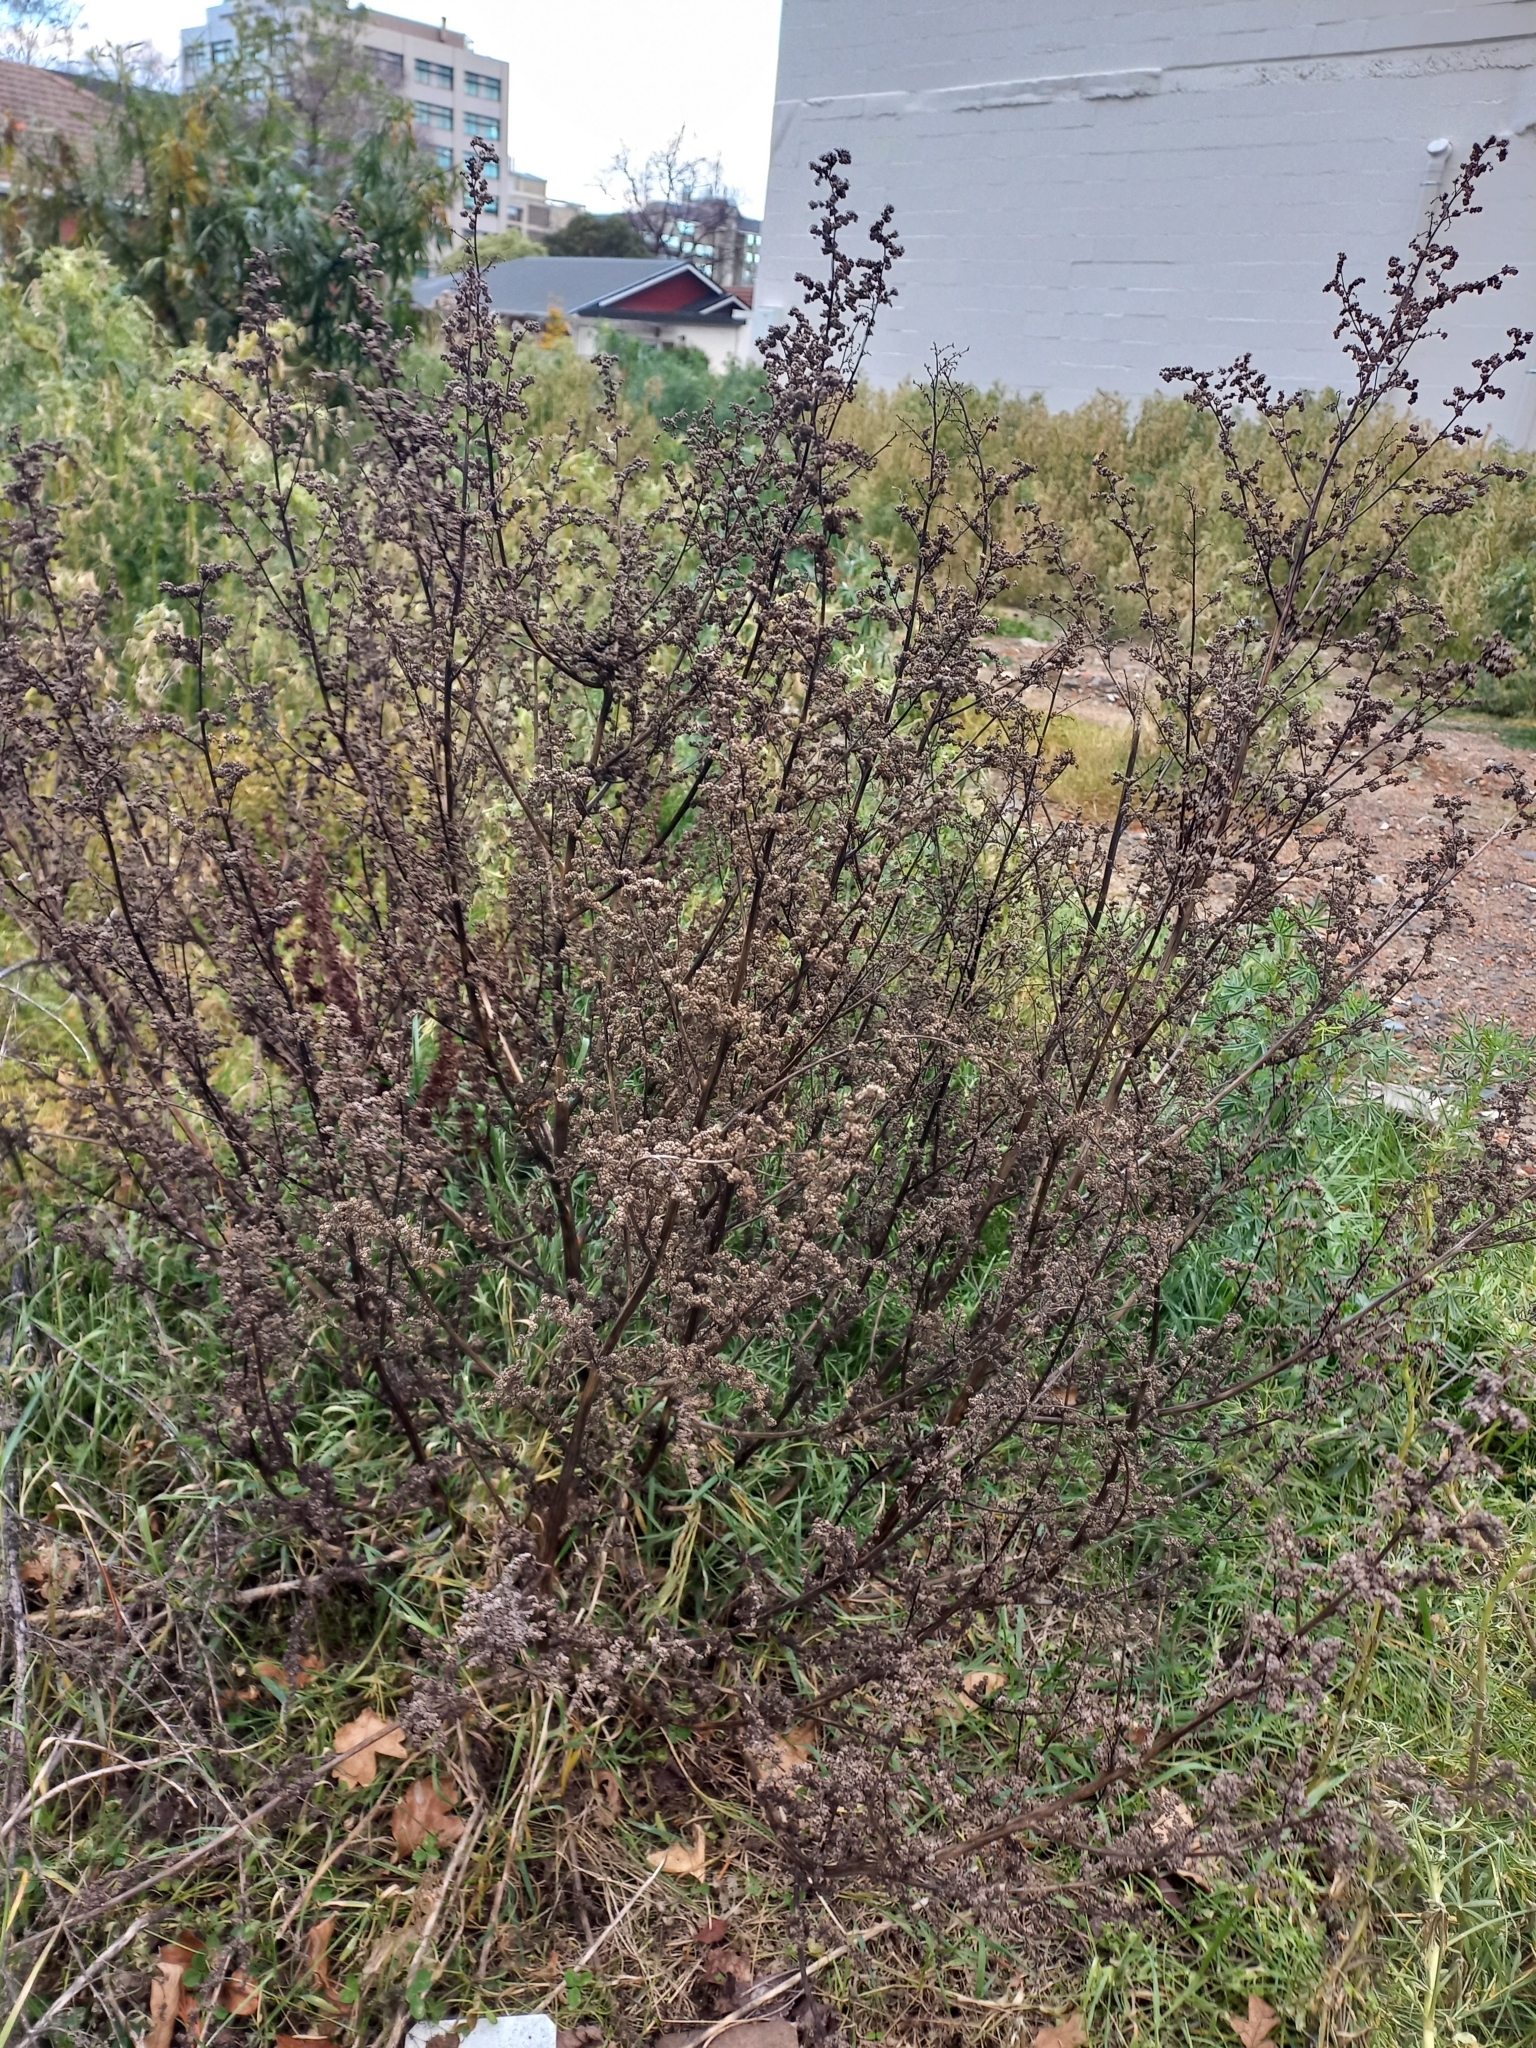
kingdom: Plantae
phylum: Tracheophyta
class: Magnoliopsida
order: Caryophyllales
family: Amaranthaceae
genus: Chenopodium
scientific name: Chenopodium album
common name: Fat-hen
